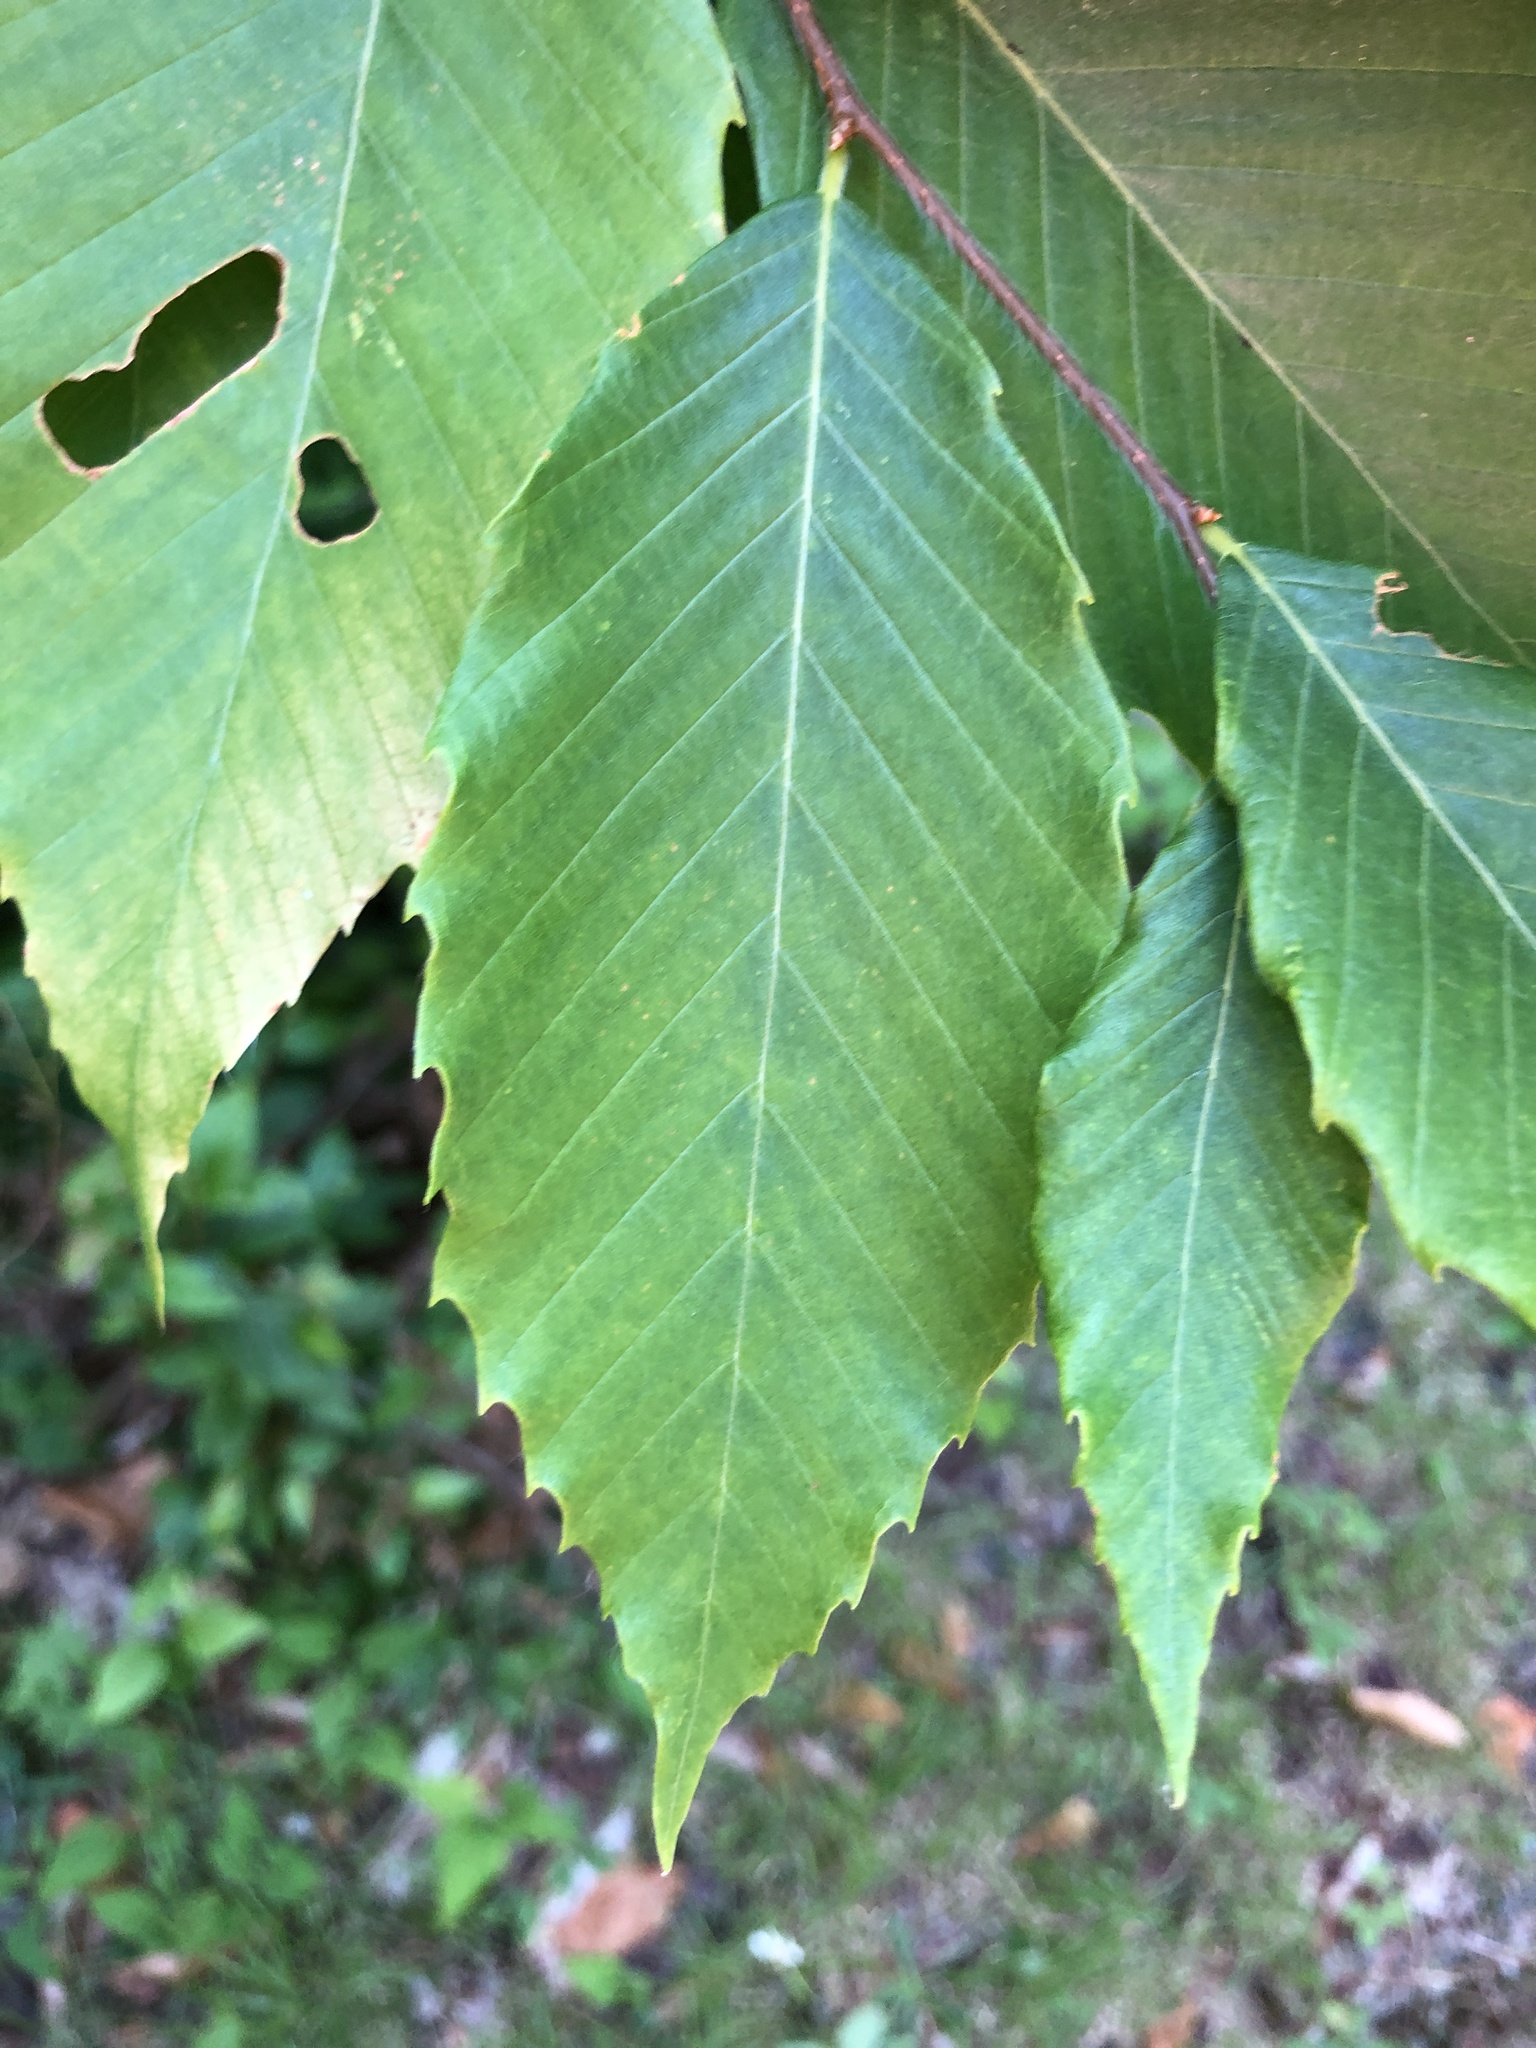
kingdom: Plantae
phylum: Tracheophyta
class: Magnoliopsida
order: Fagales
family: Fagaceae
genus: Fagus
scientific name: Fagus grandifolia
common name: American beech
